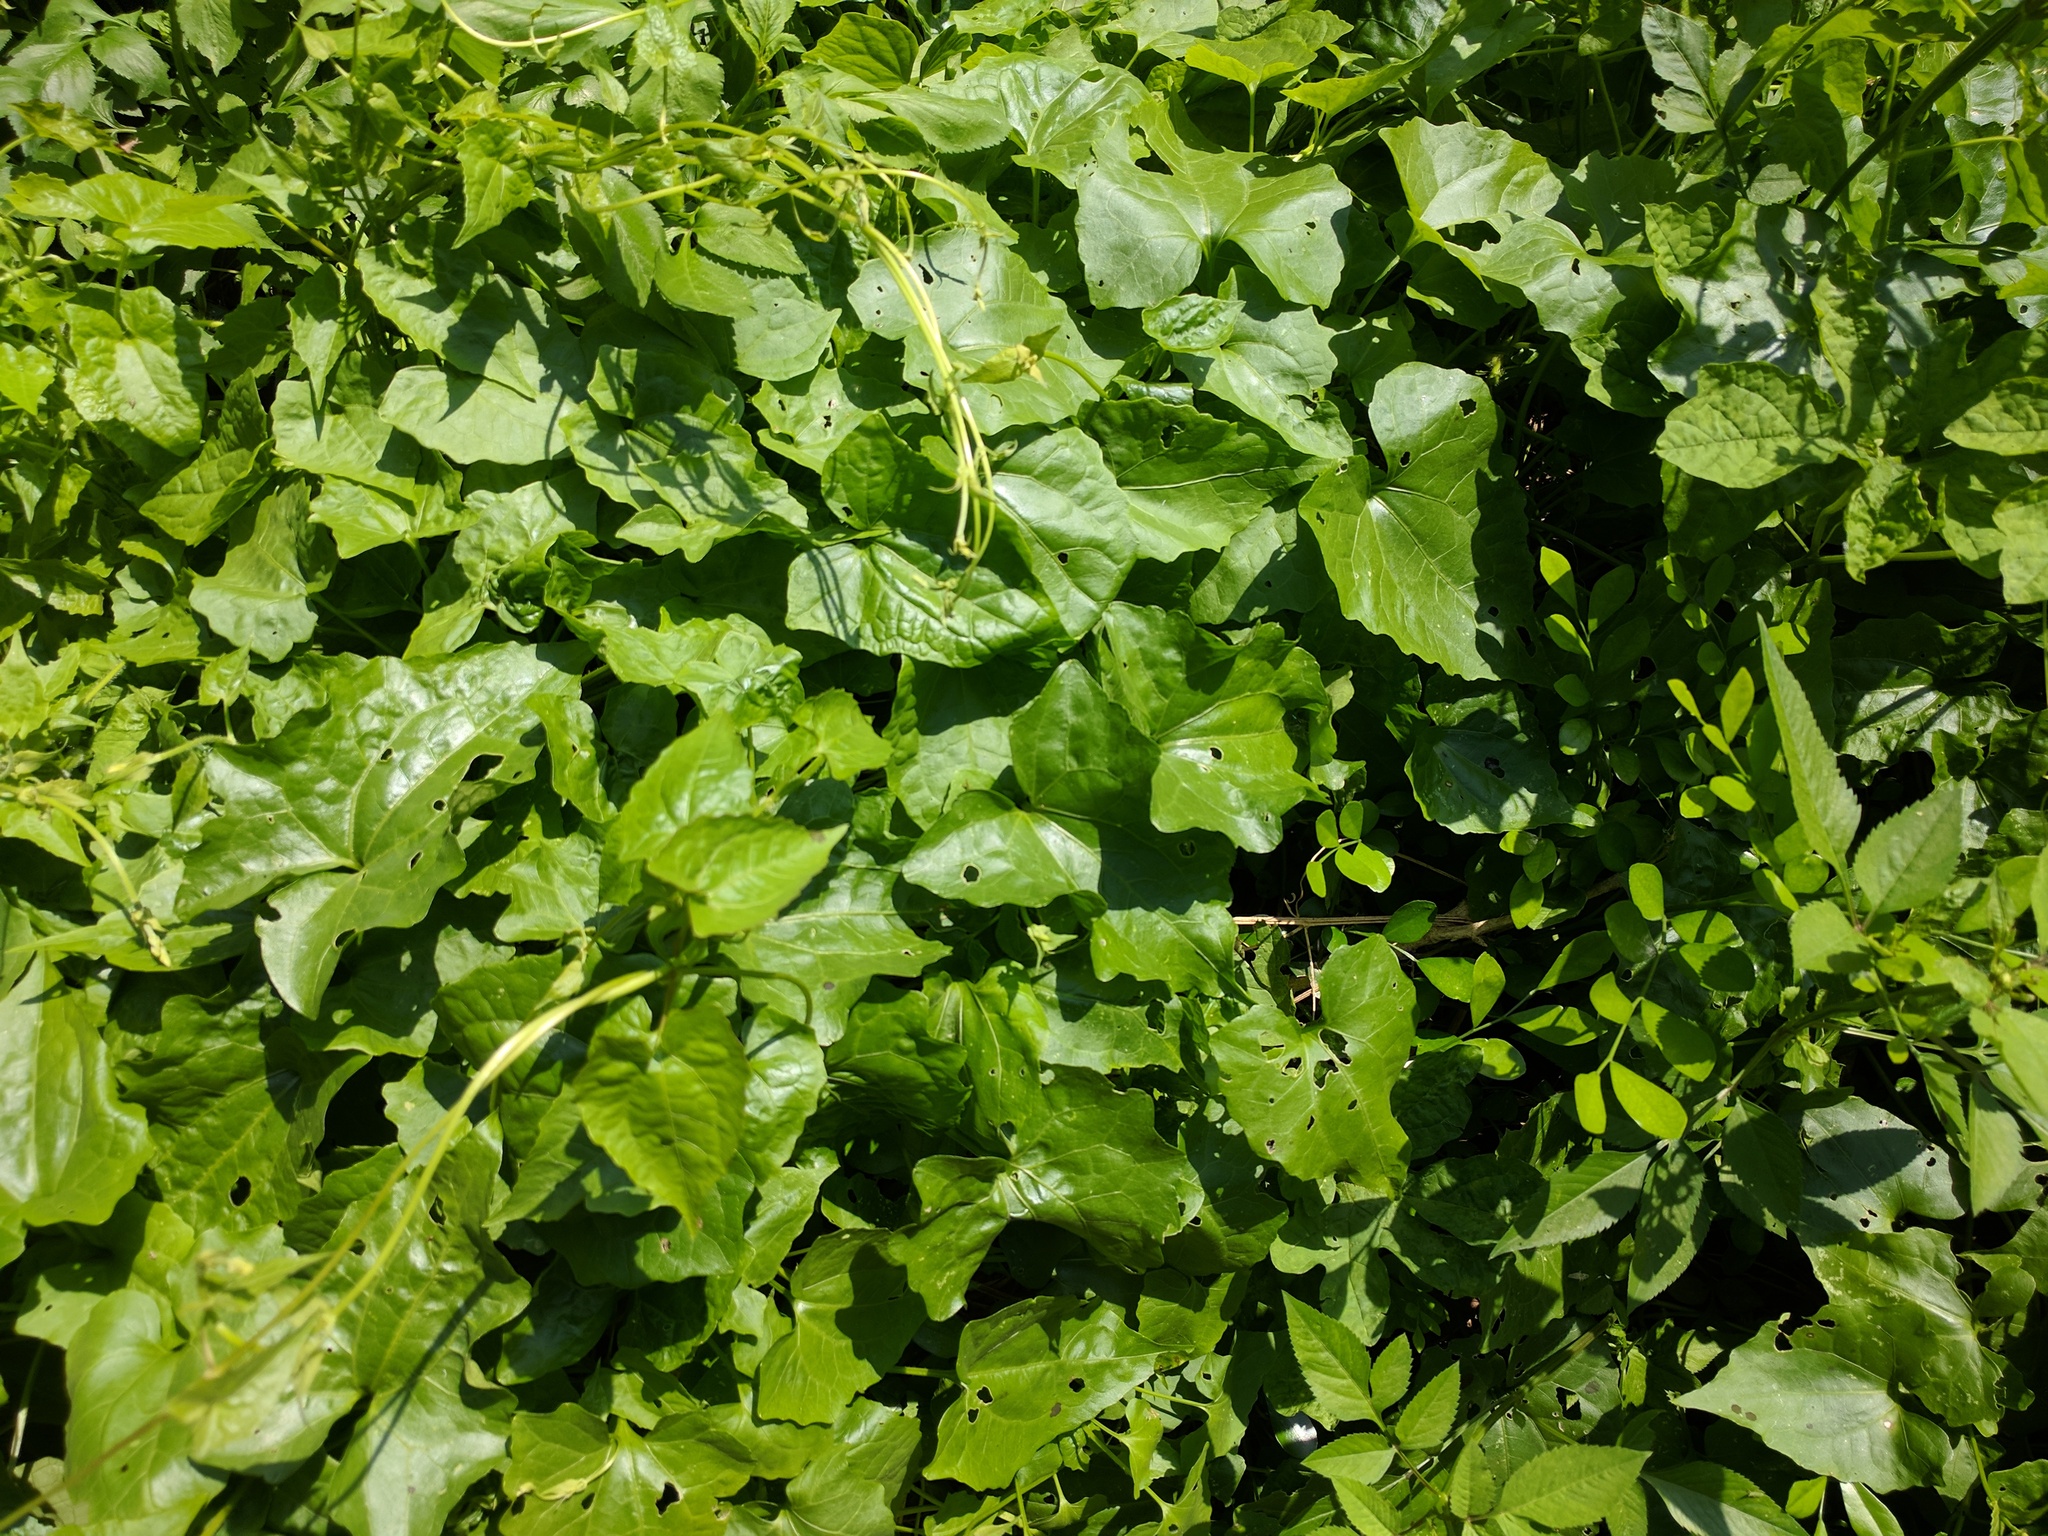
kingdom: Plantae
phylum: Tracheophyta
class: Magnoliopsida
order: Asterales
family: Asteraceae
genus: Mikania
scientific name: Mikania micrantha
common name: Mile-a-minute
